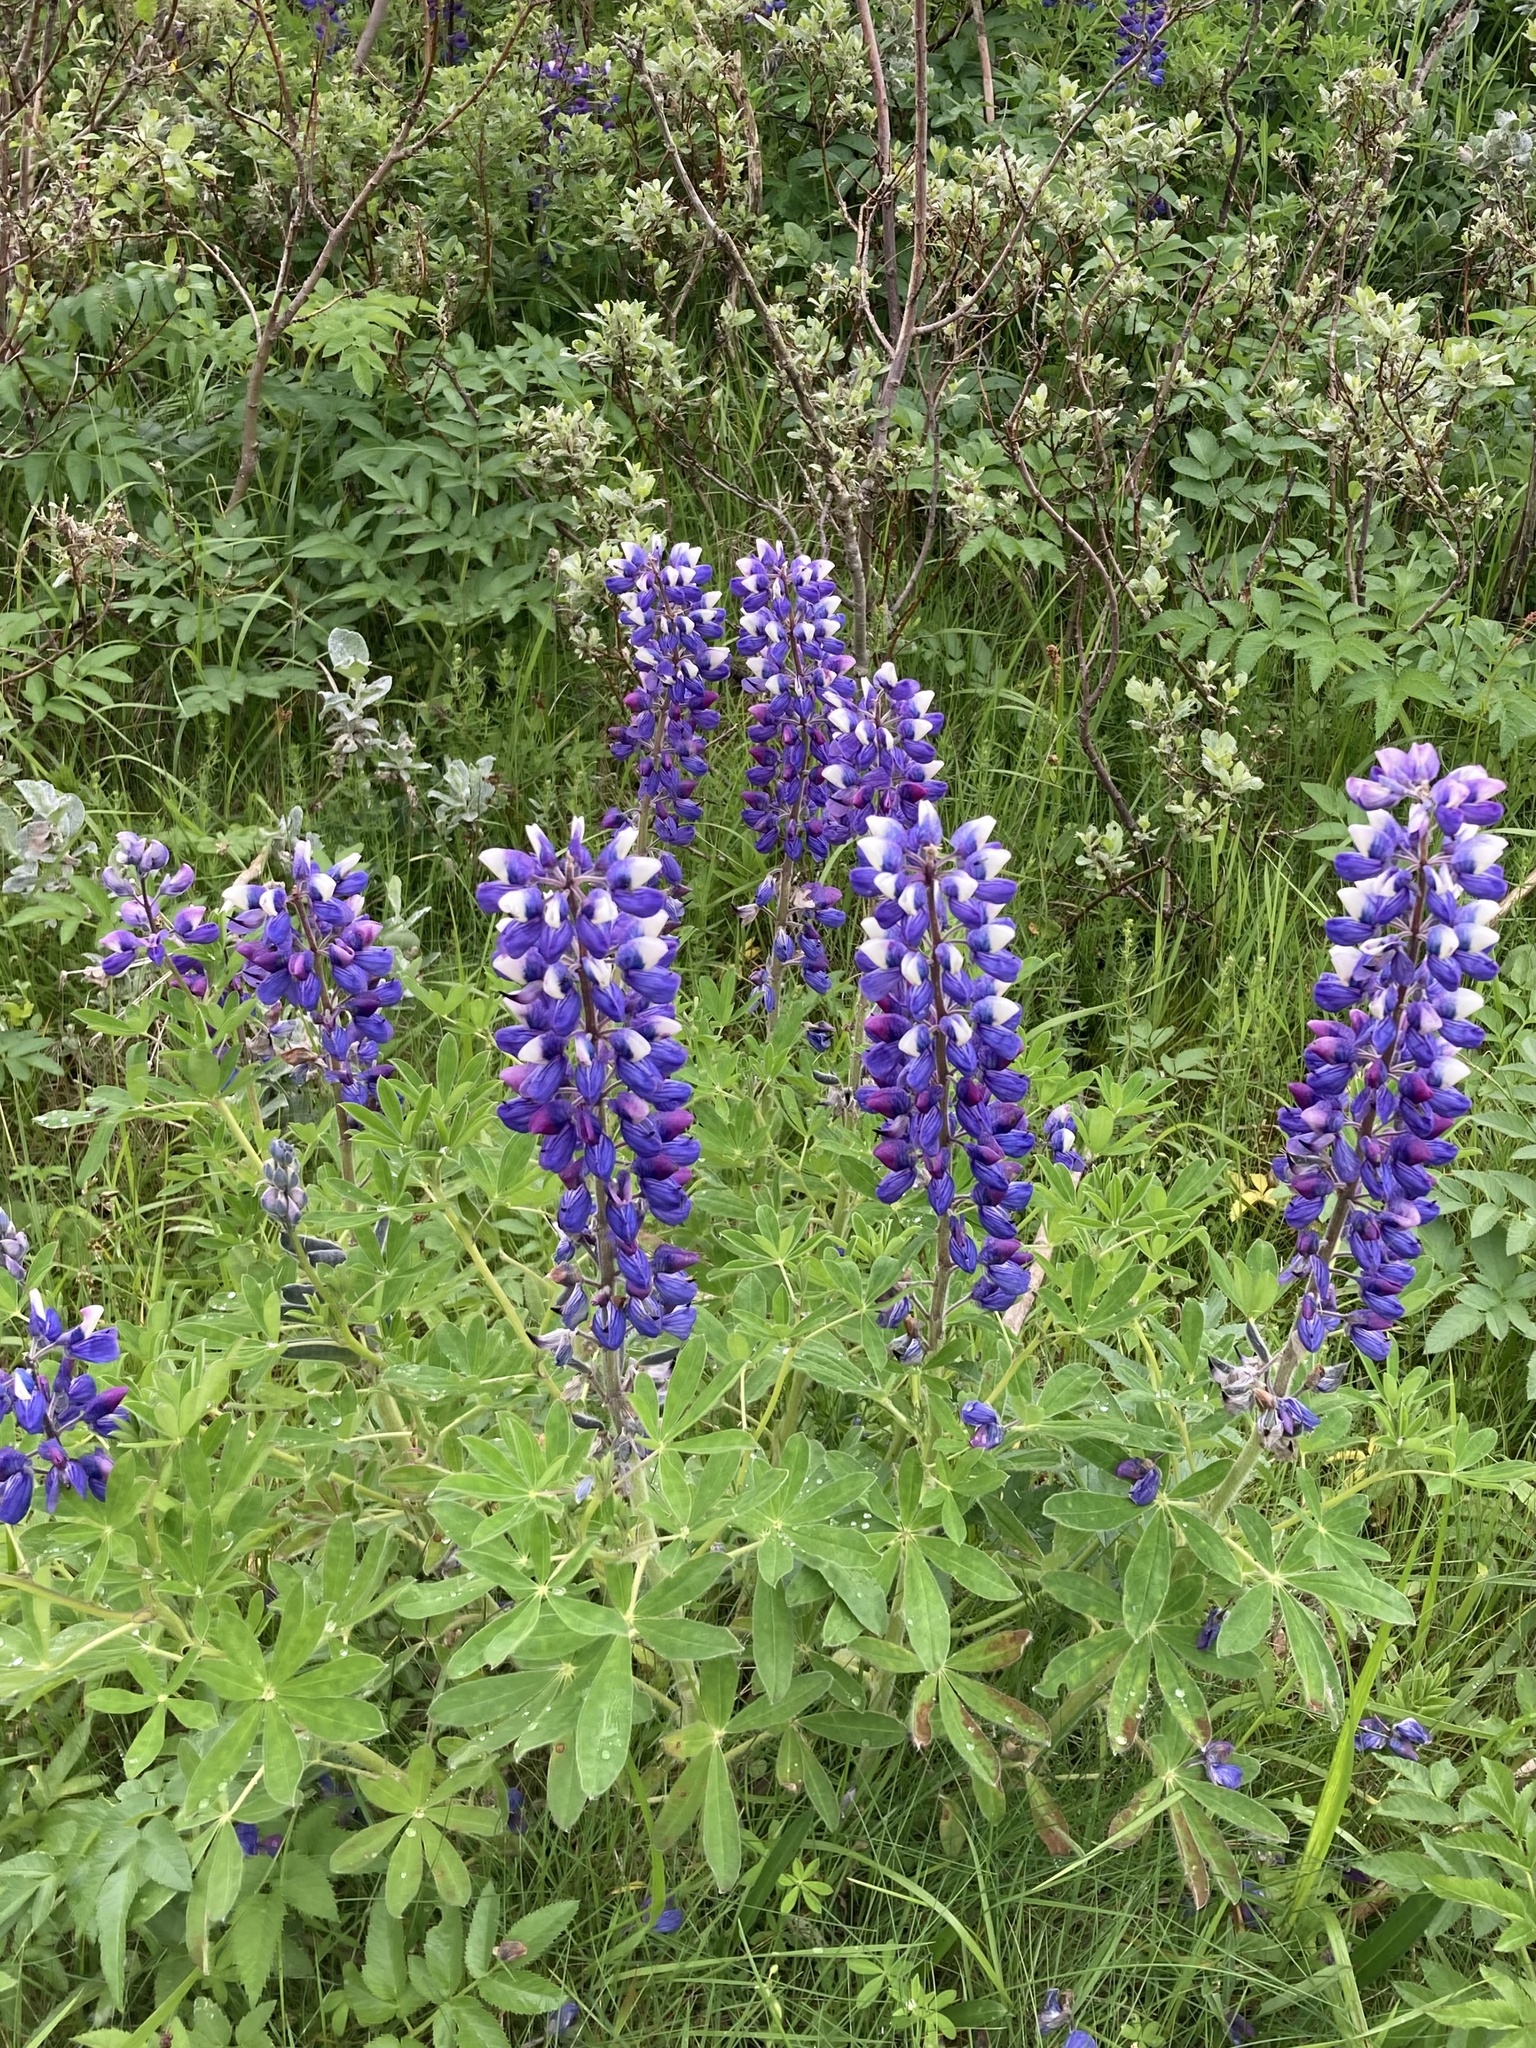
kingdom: Plantae
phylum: Tracheophyta
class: Magnoliopsida
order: Fabales
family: Fabaceae
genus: Lupinus
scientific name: Lupinus nootkatensis
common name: Nootka lupine
